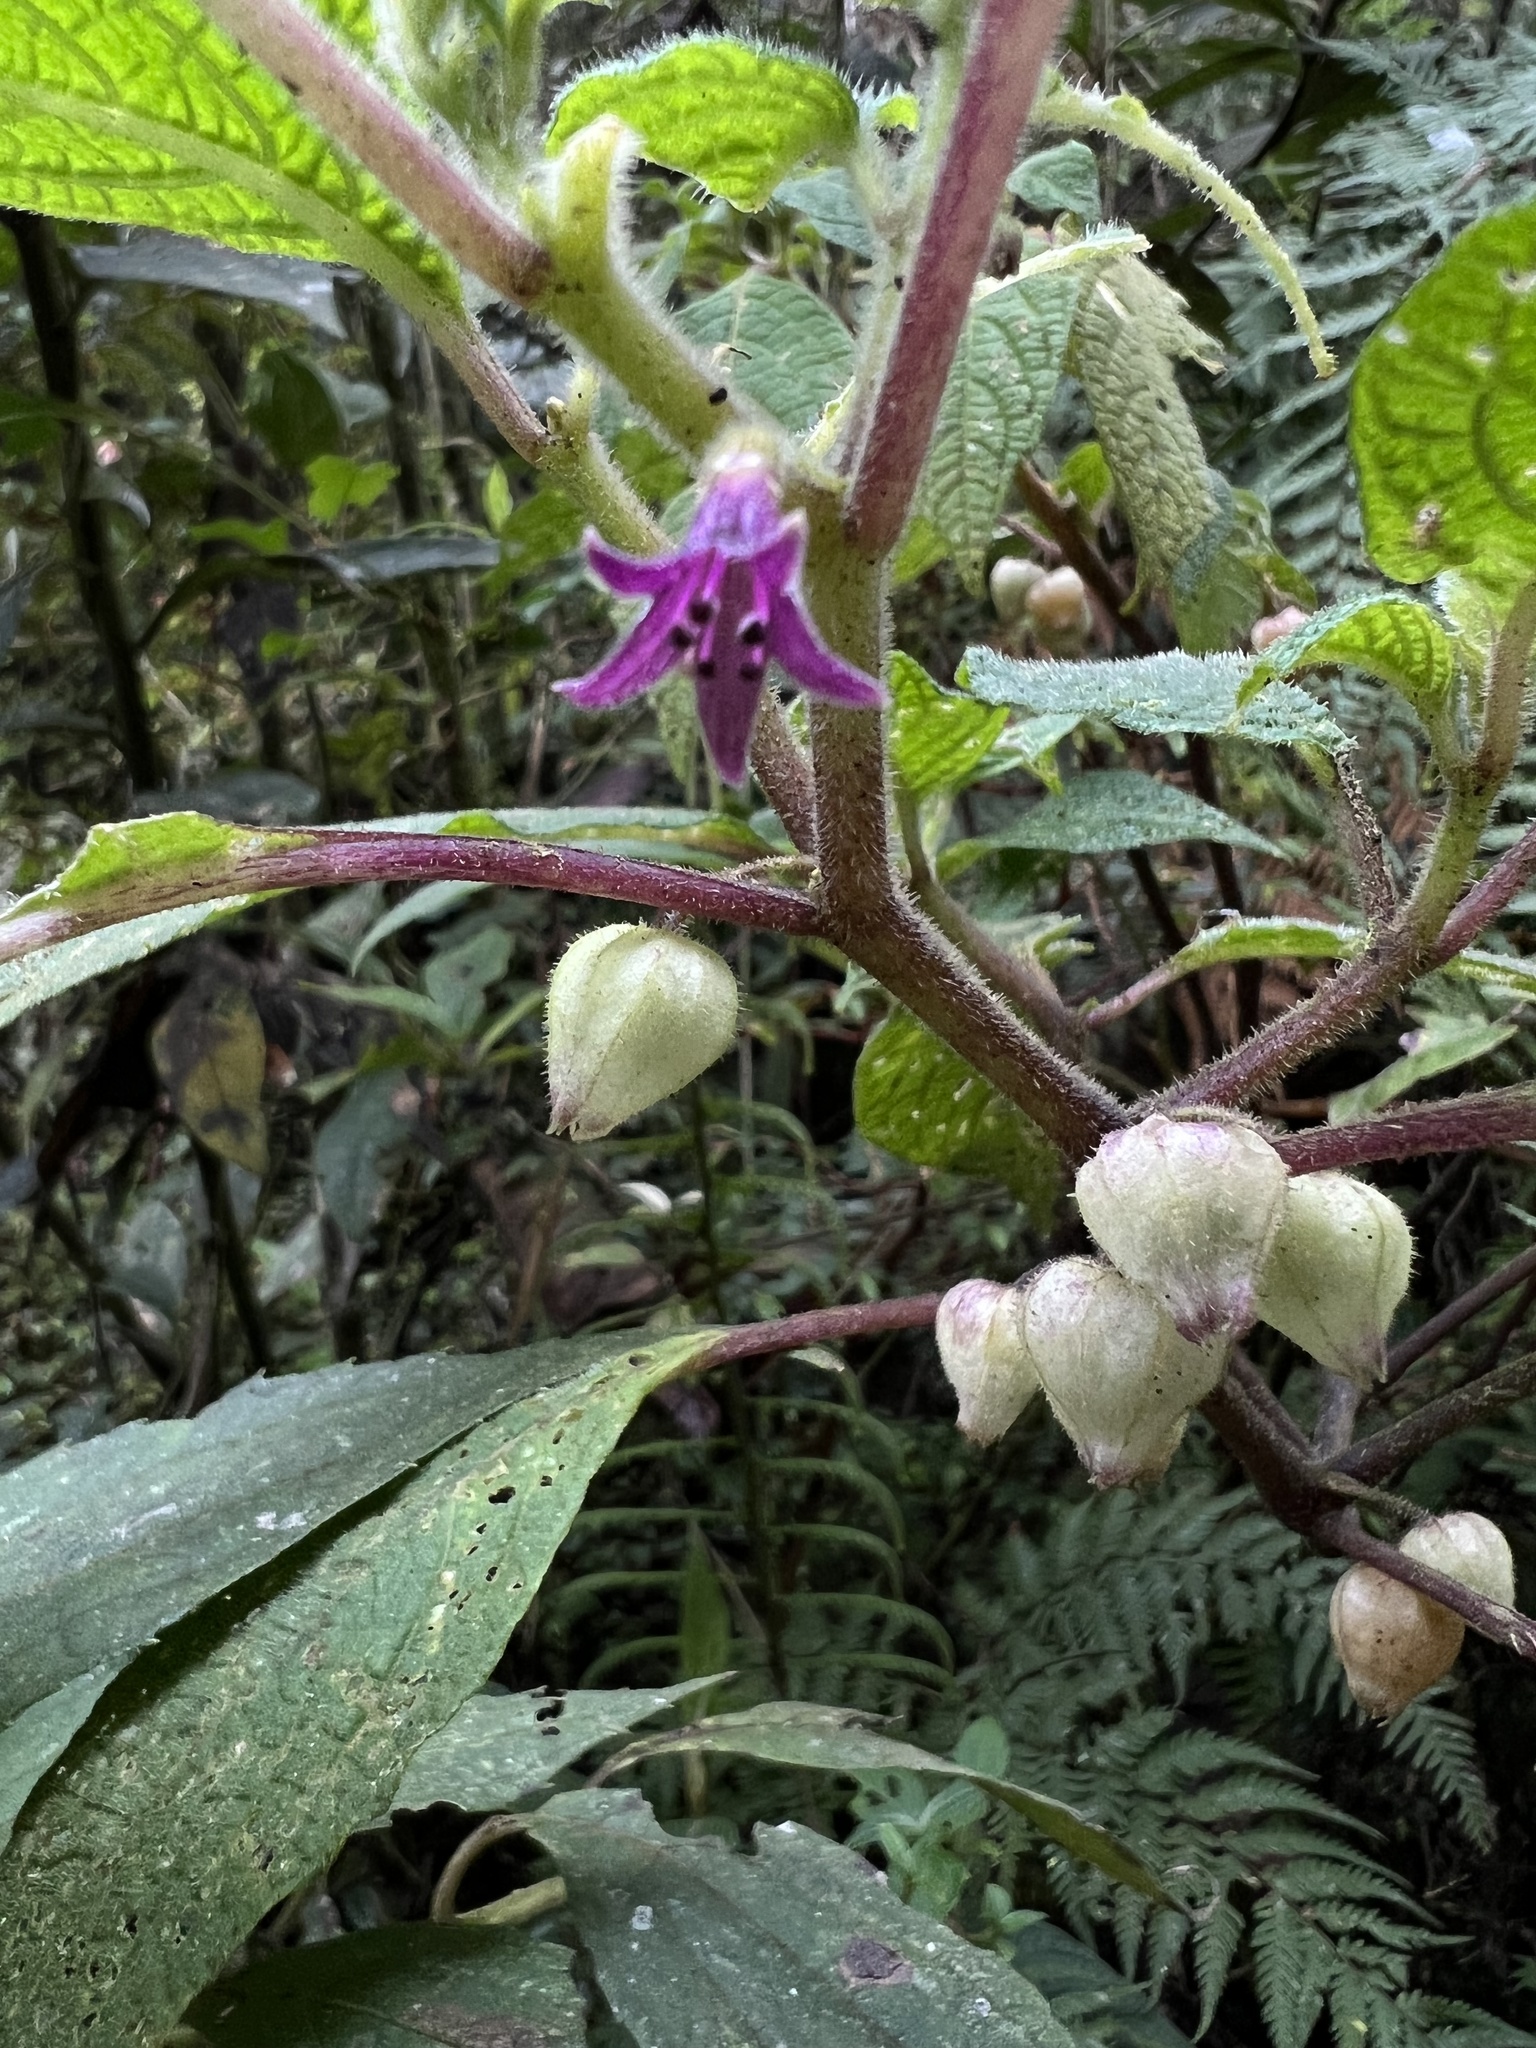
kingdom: Plantae
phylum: Tracheophyta
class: Magnoliopsida
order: Solanales
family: Solanaceae
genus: Deprea
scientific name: Deprea bitteriana
